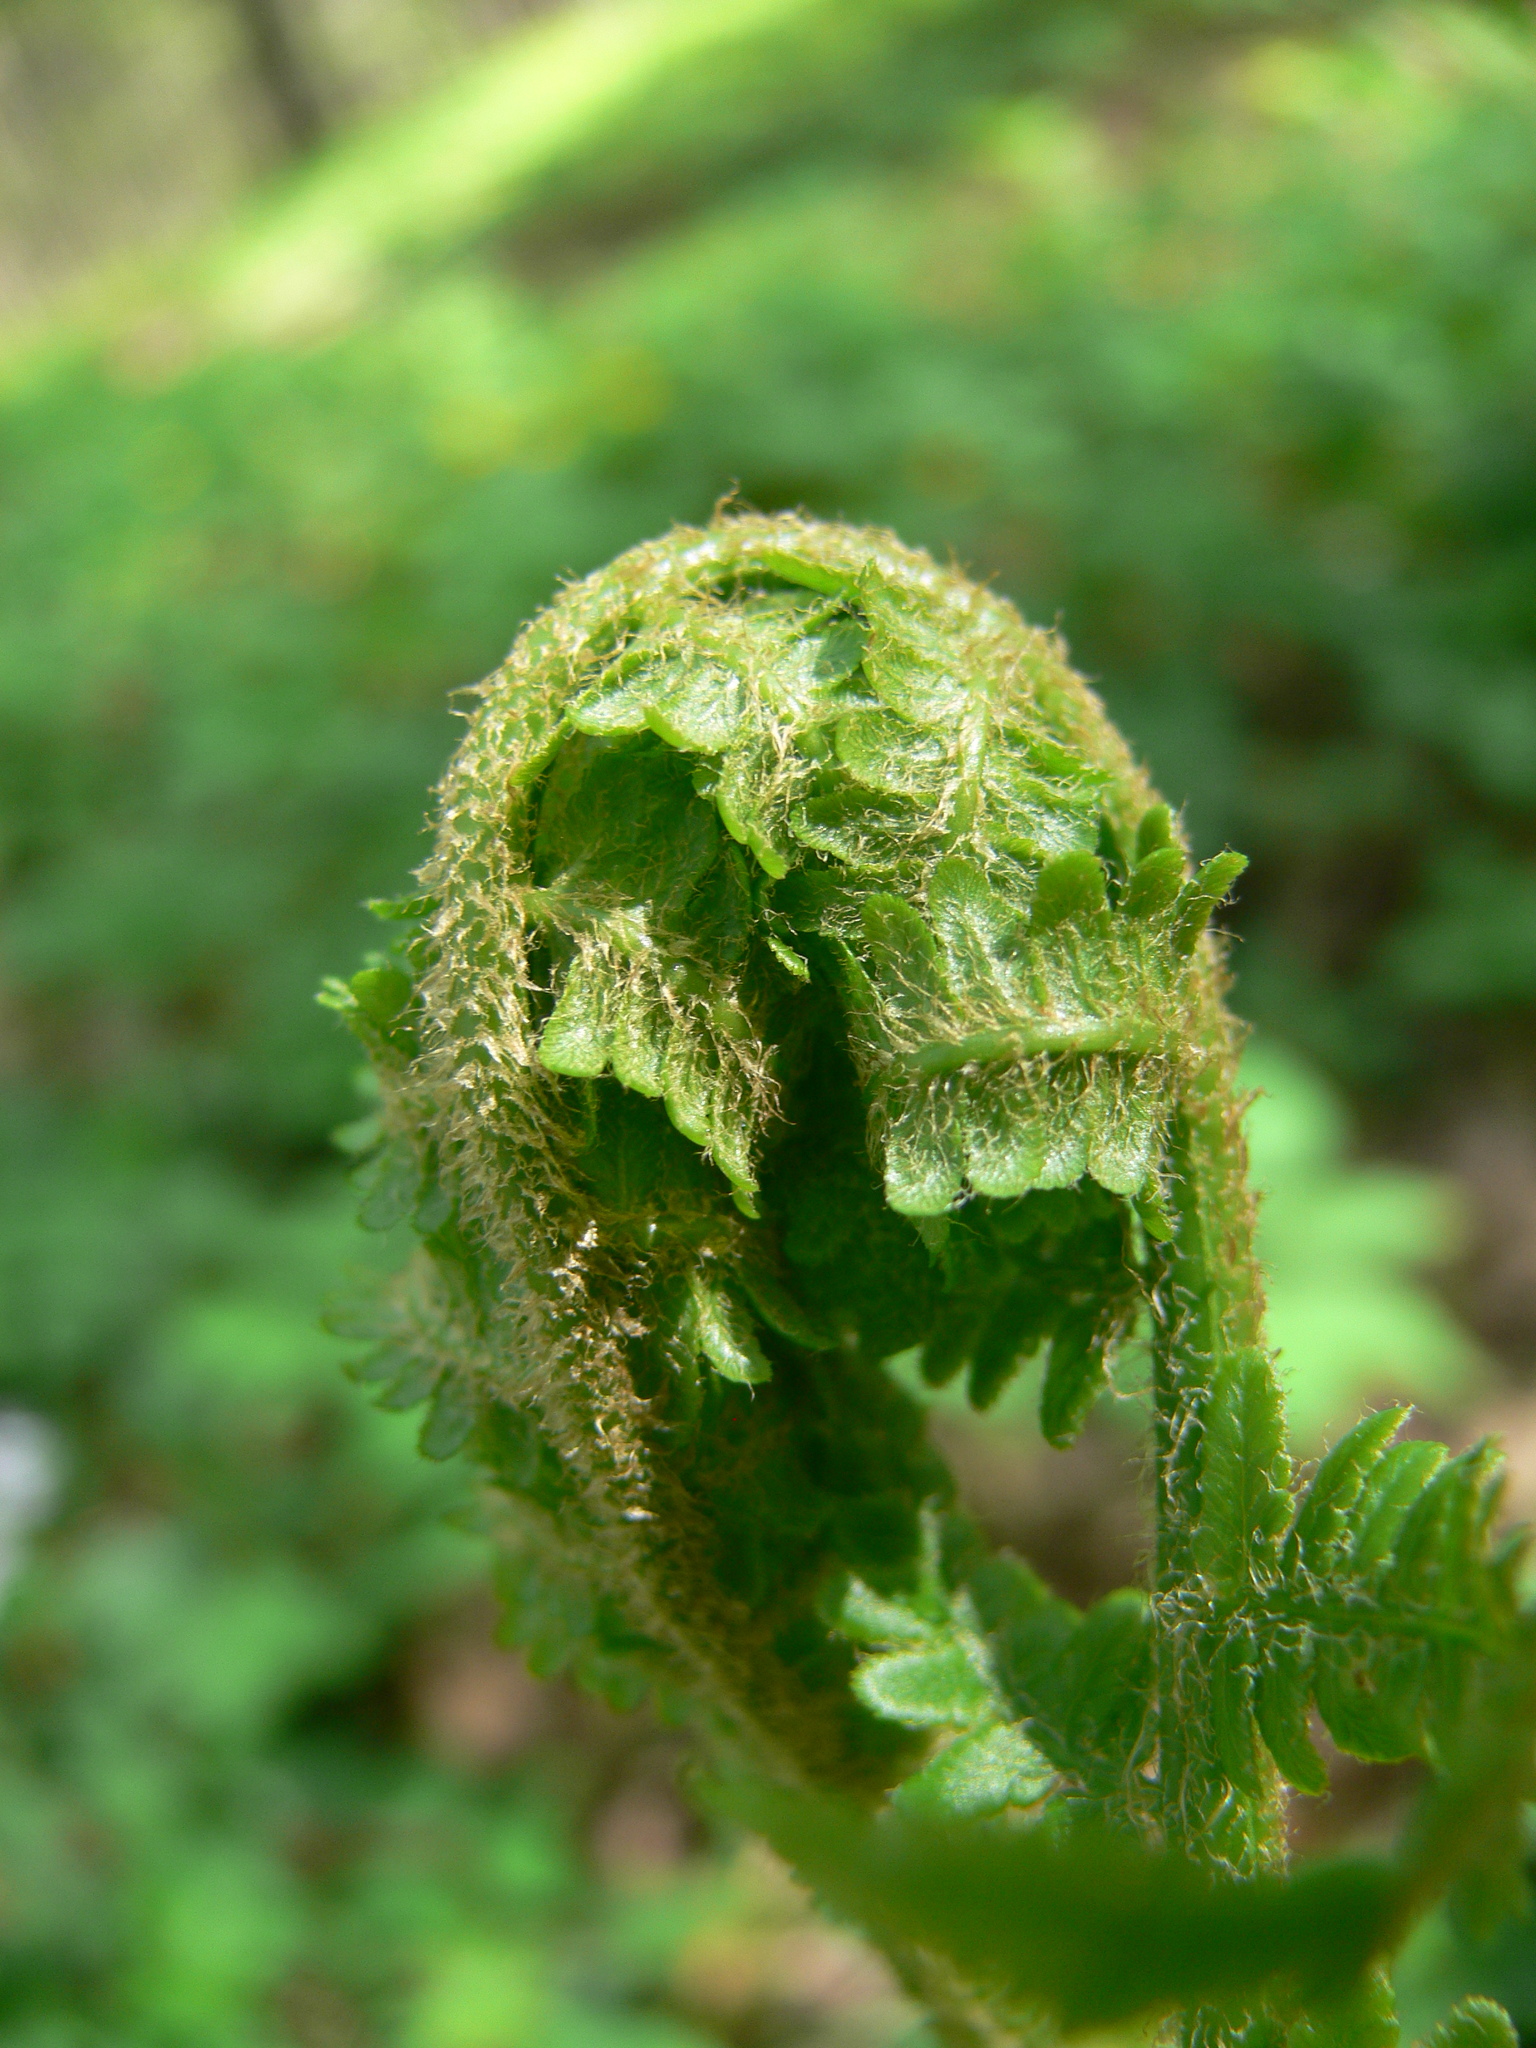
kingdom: Plantae
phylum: Tracheophyta
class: Polypodiopsida
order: Polypodiales
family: Dryopteridaceae
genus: Dryopteris
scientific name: Dryopteris filix-mas
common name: Male fern
